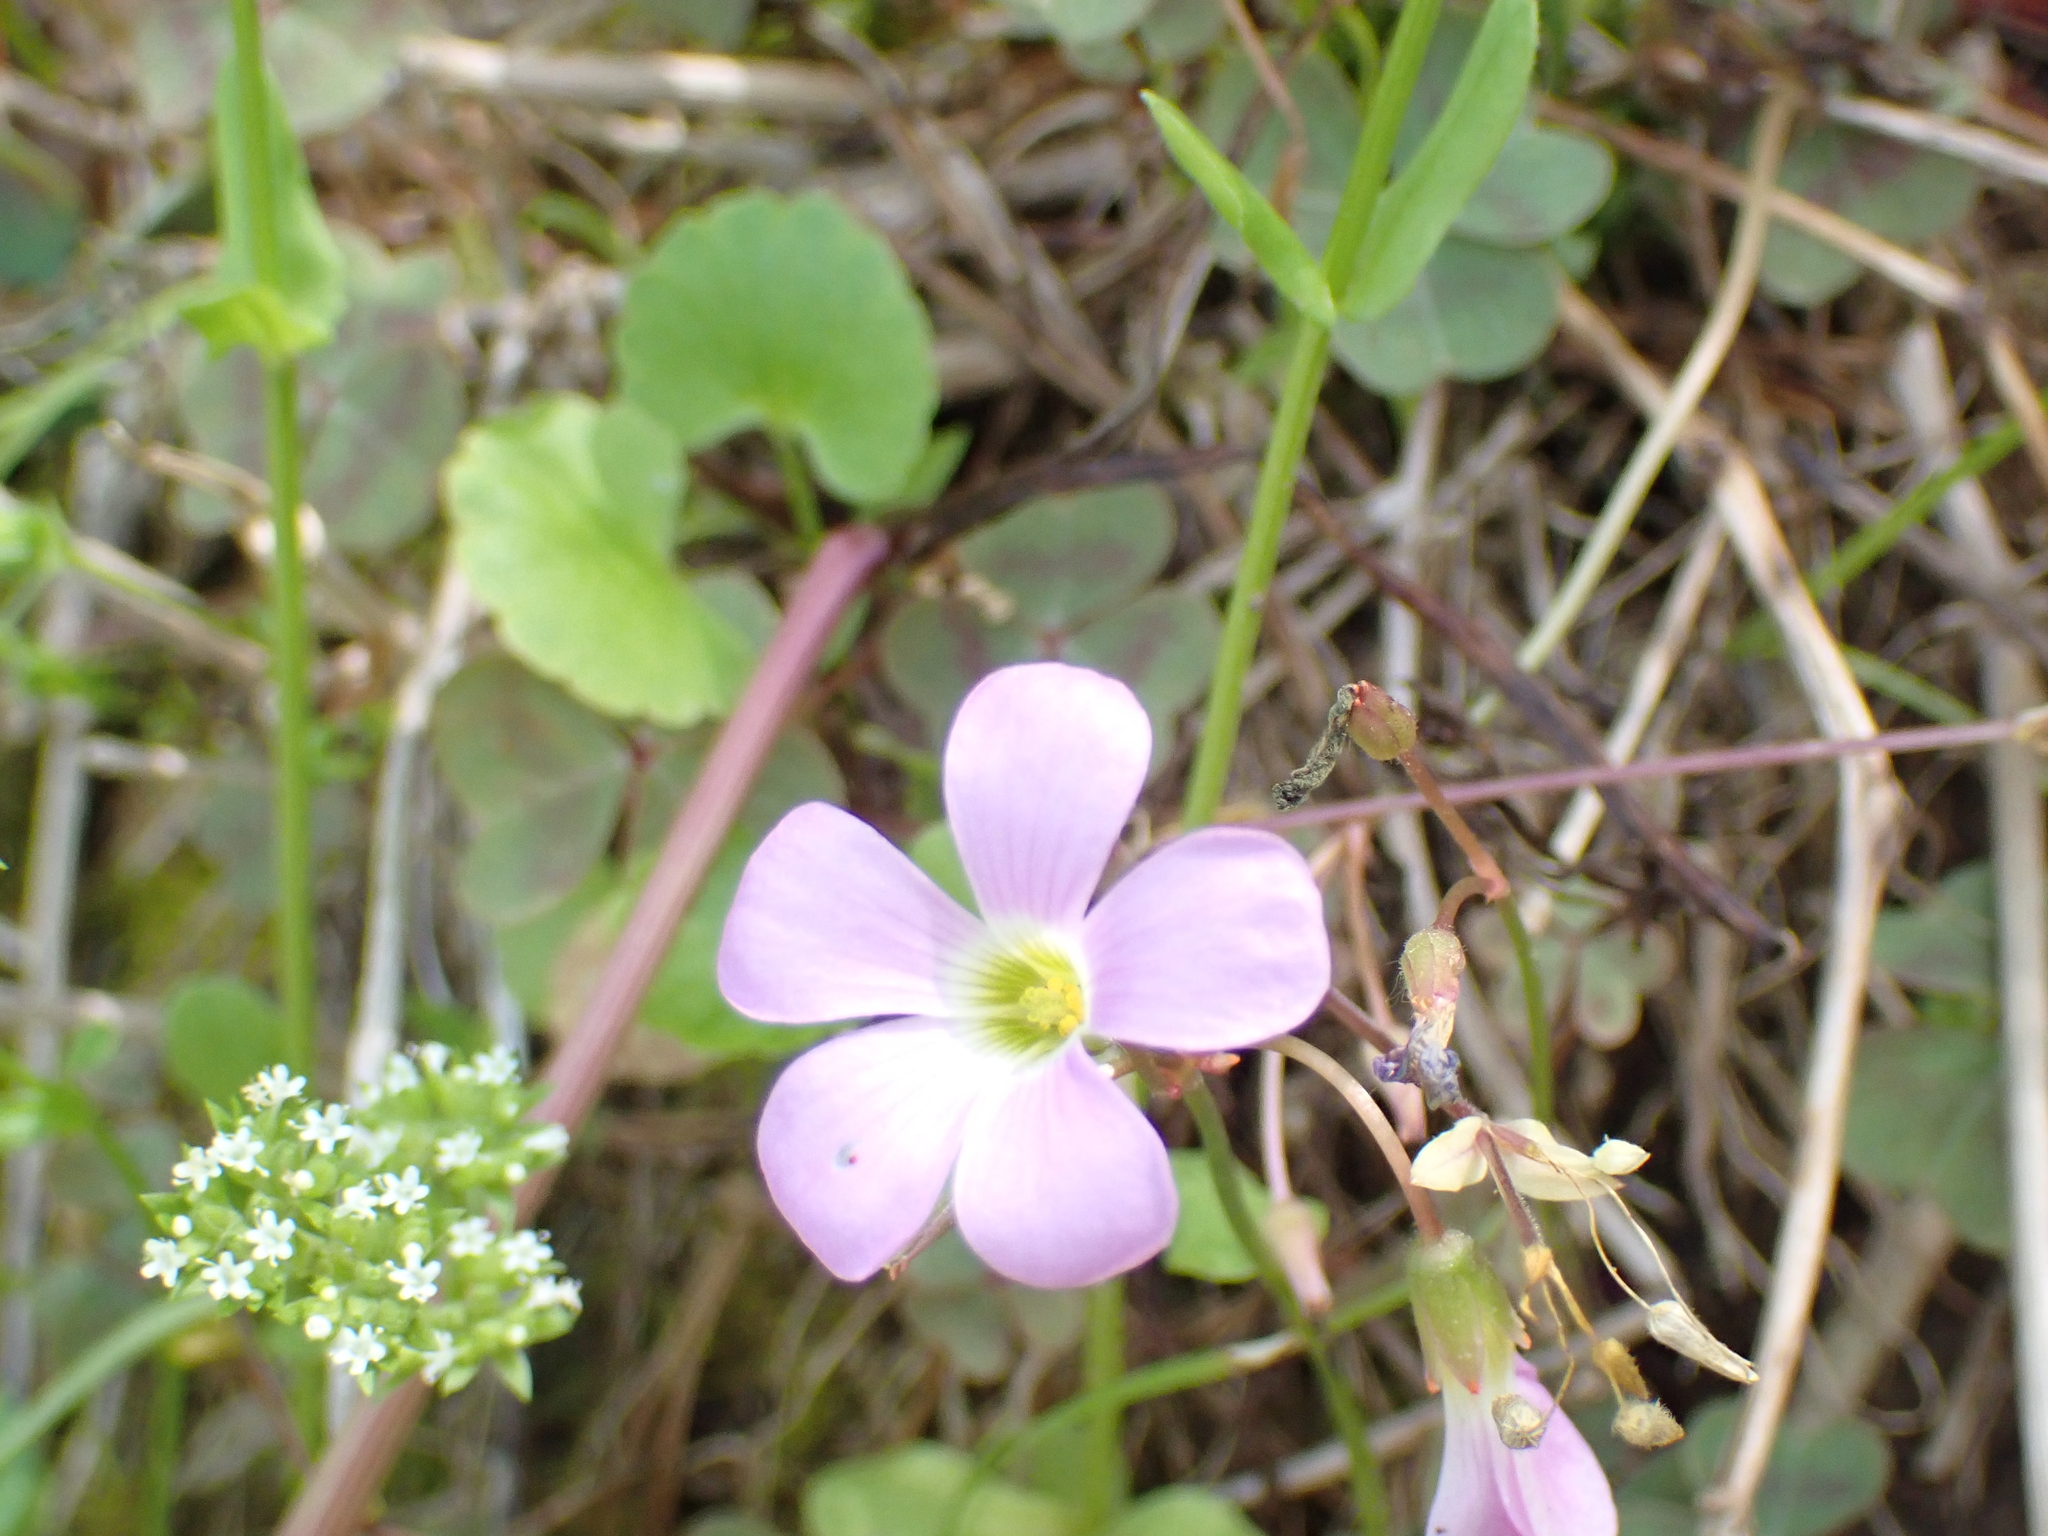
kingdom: Plantae
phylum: Tracheophyta
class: Magnoliopsida
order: Oxalidales
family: Oxalidaceae
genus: Oxalis
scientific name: Oxalis violacea
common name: Violet wood-sorrel
